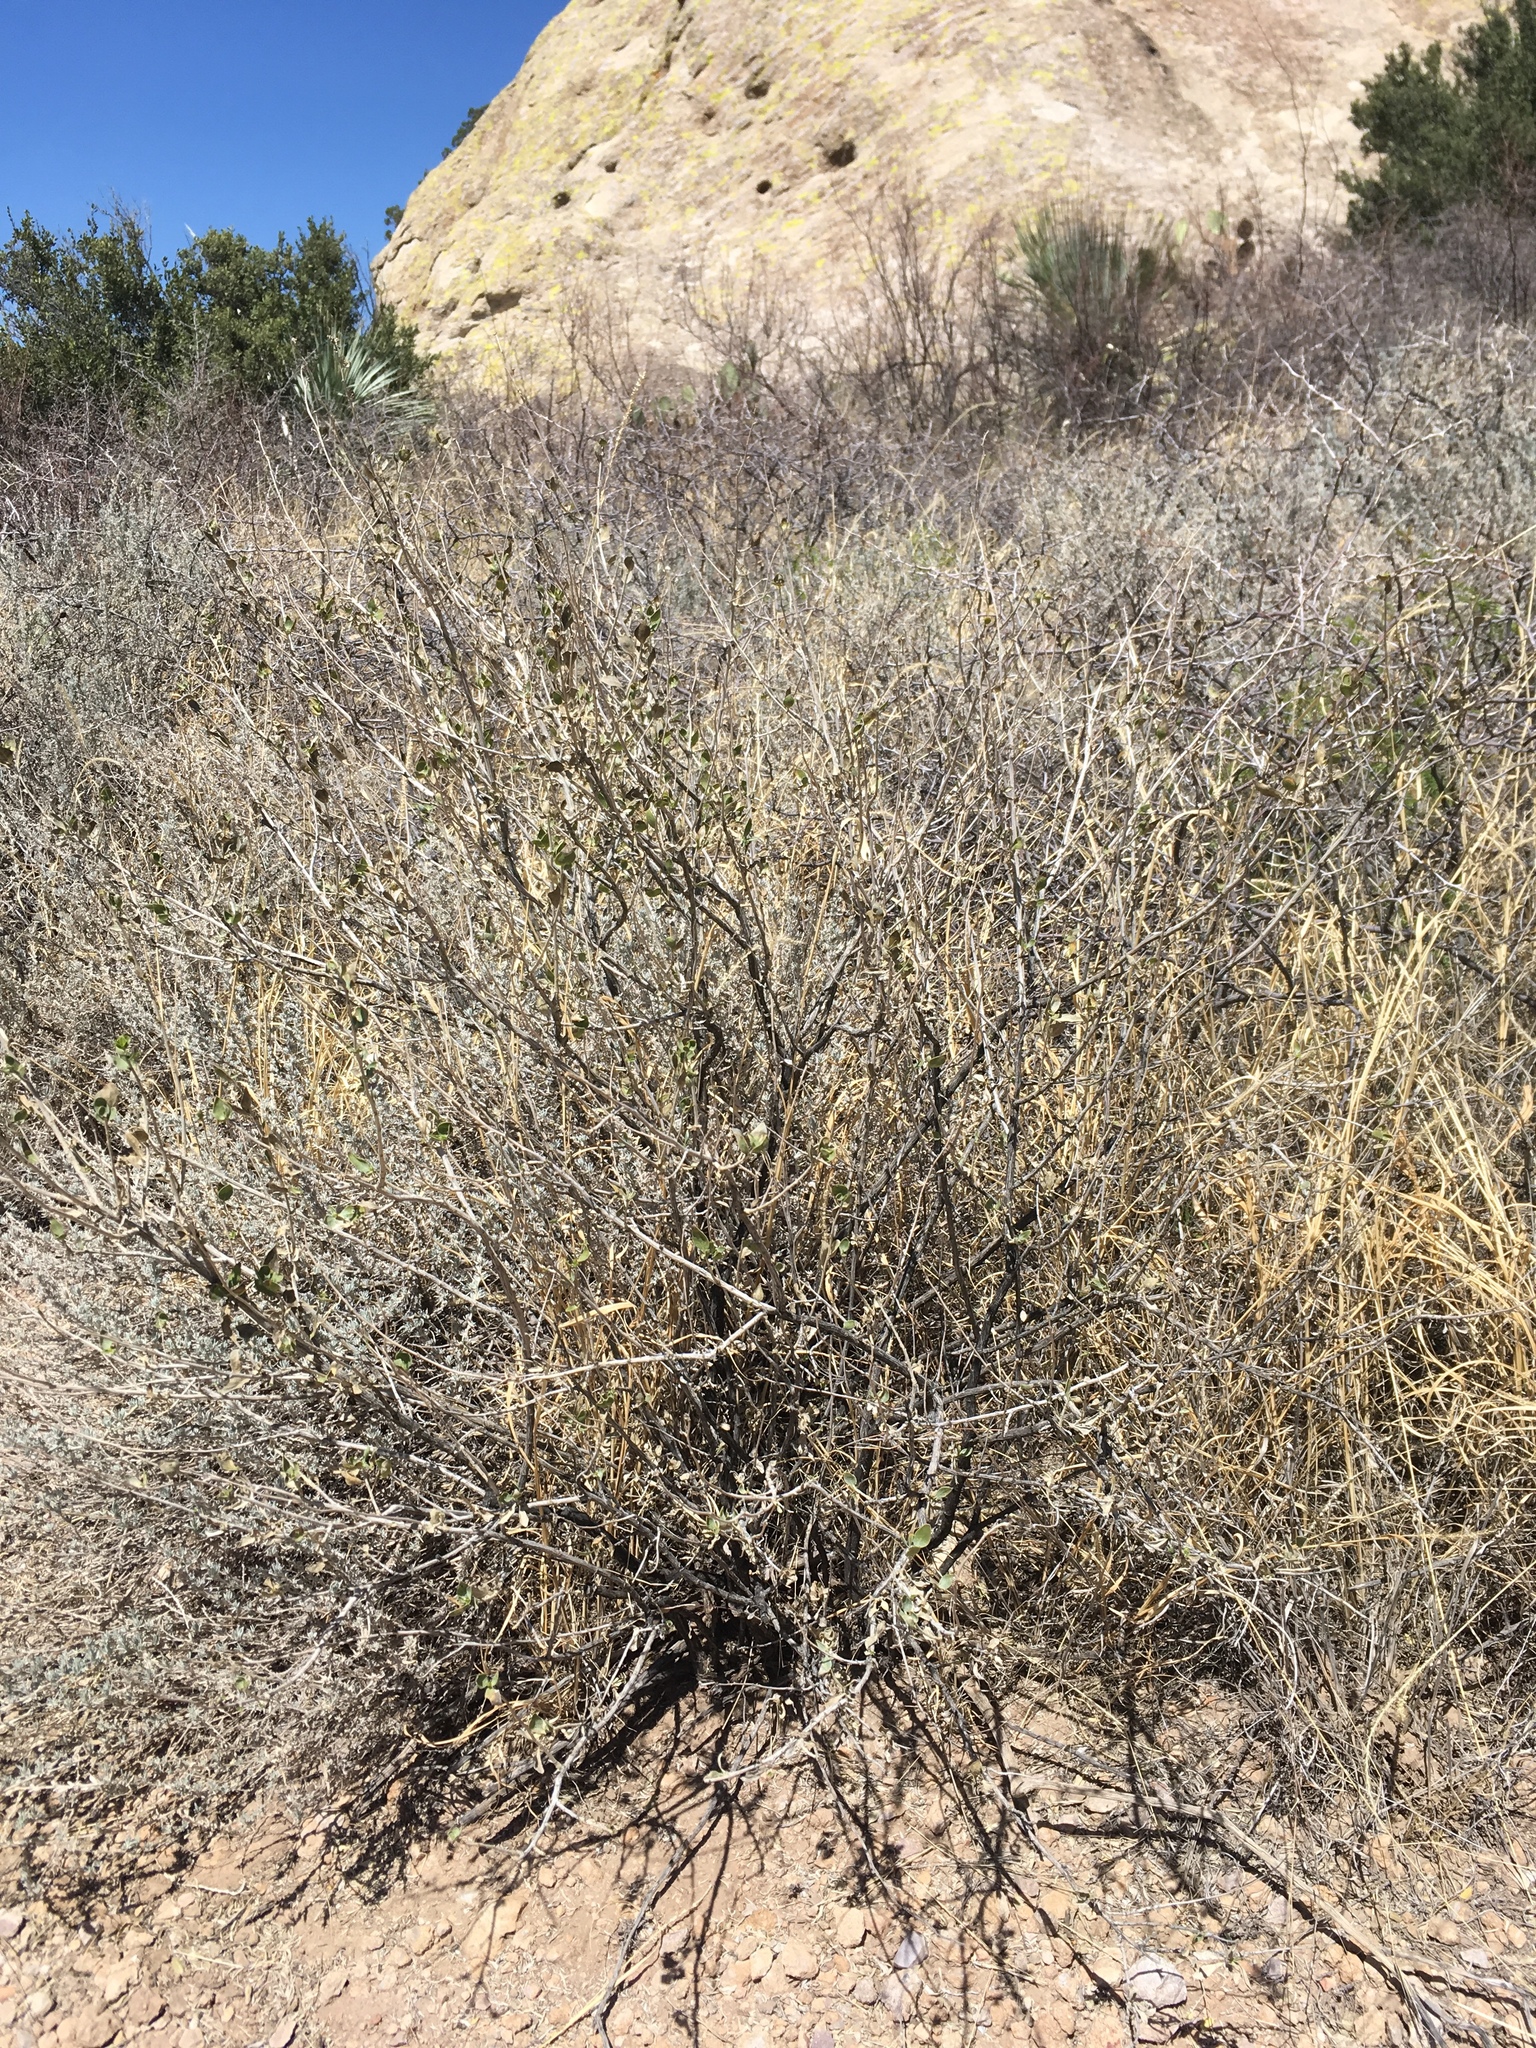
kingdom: Plantae
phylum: Tracheophyta
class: Magnoliopsida
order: Asterales
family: Asteraceae
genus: Flourensia
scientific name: Flourensia cernua
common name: Varnishbush
